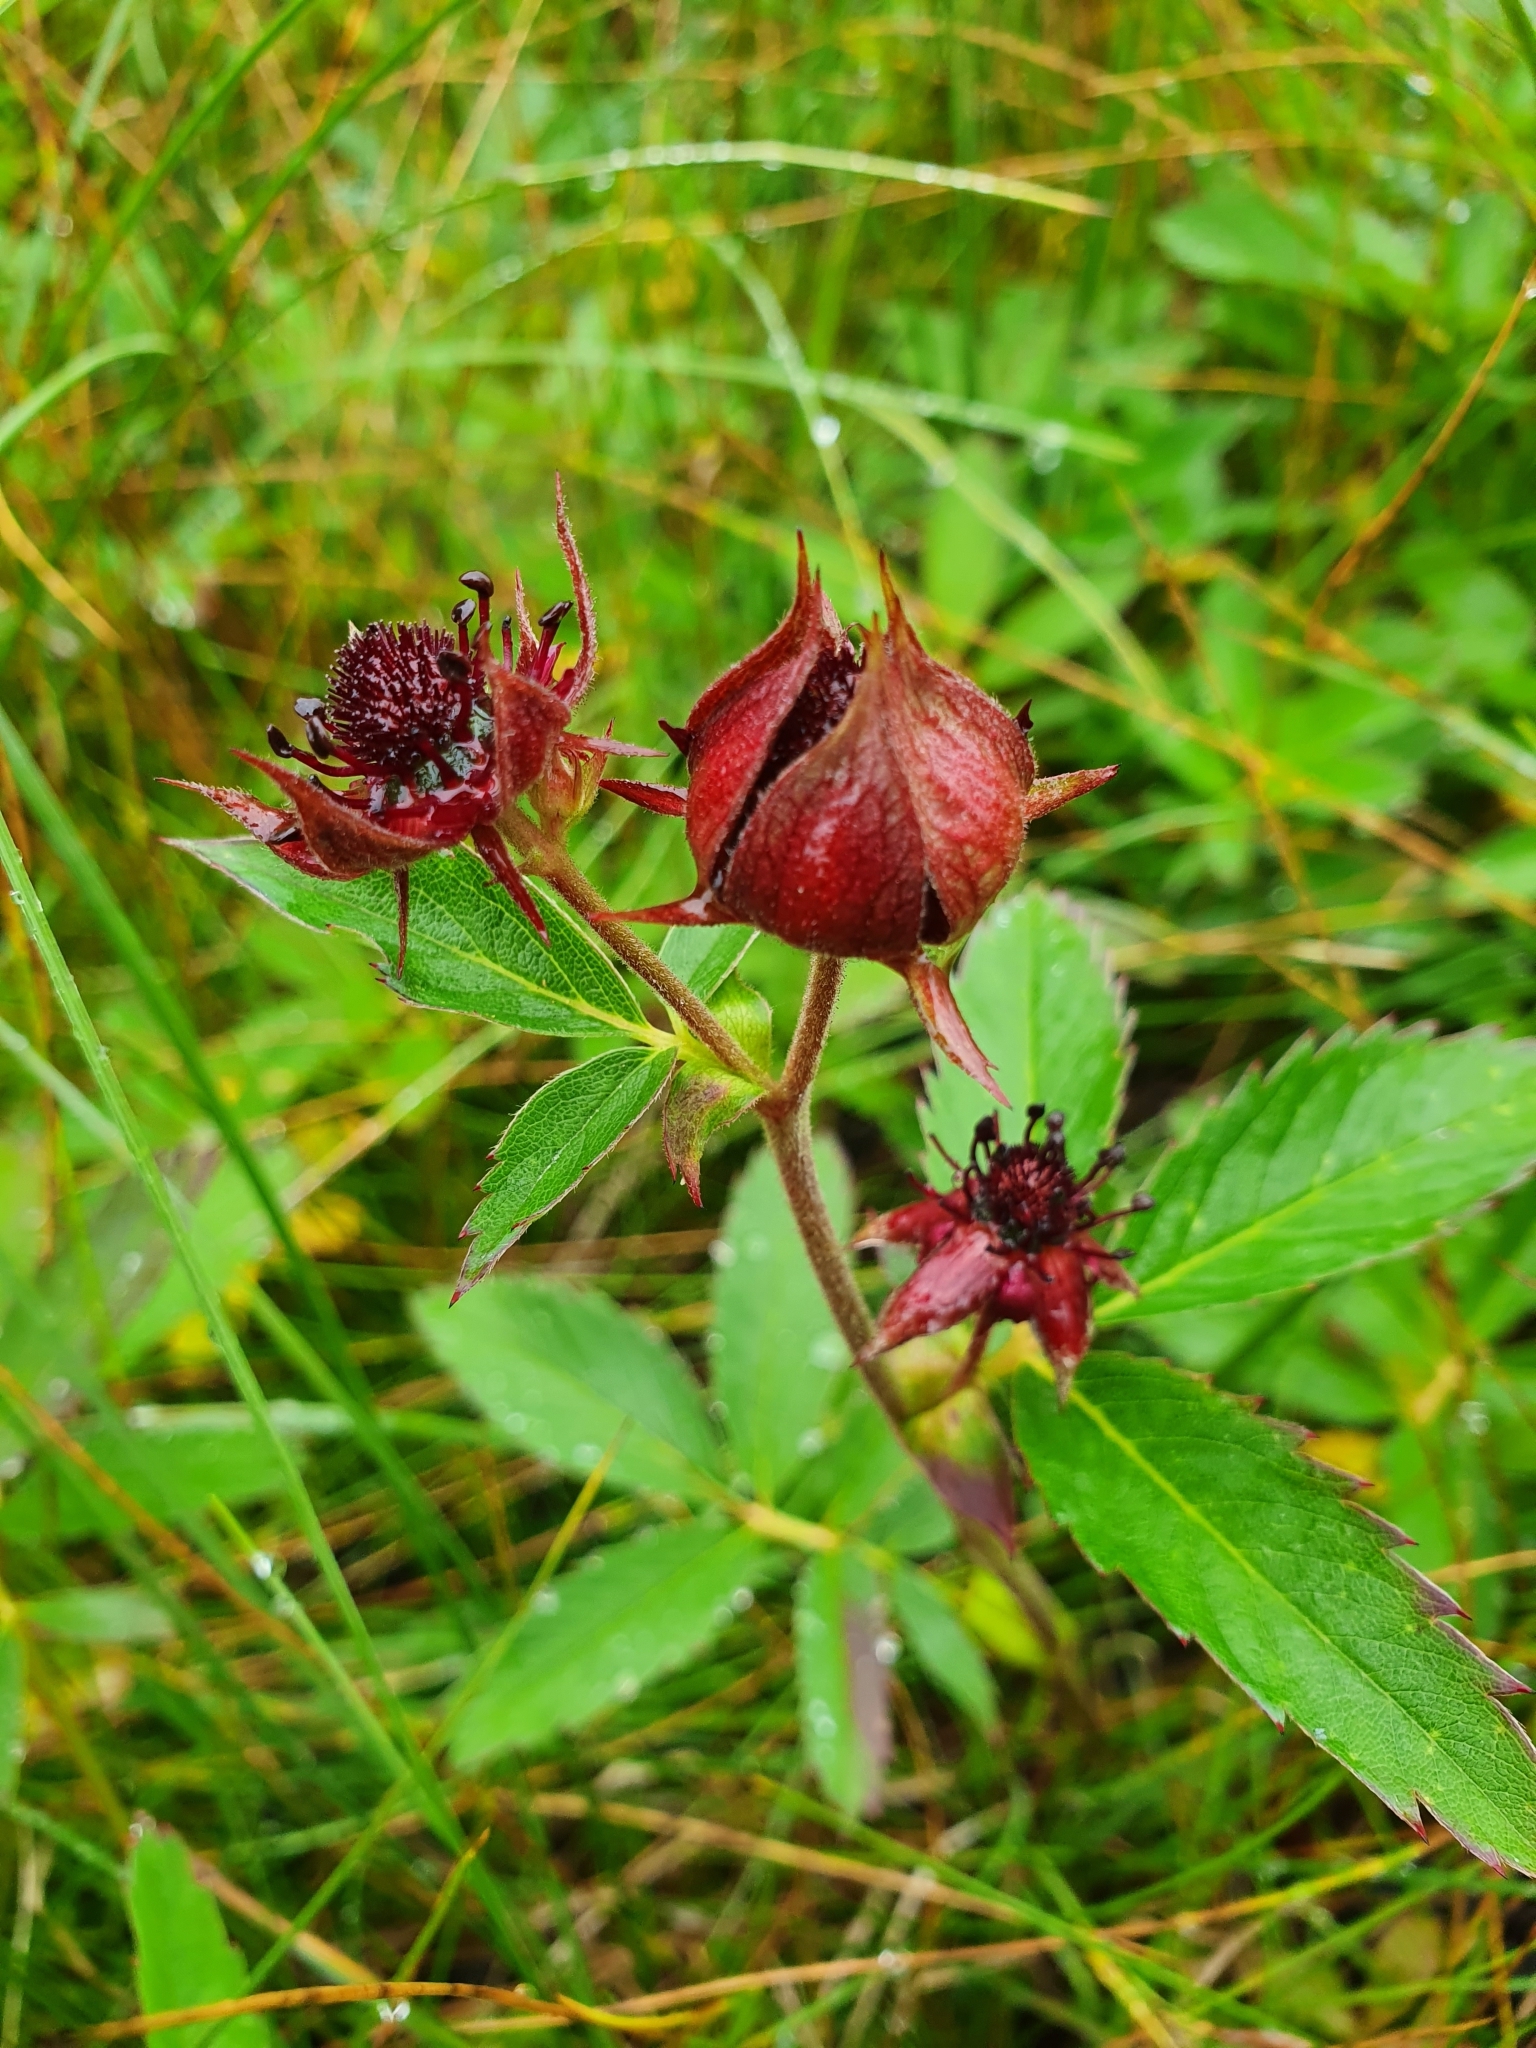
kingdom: Plantae
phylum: Tracheophyta
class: Magnoliopsida
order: Rosales
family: Rosaceae
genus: Comarum
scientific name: Comarum palustre
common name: Marsh cinquefoil
